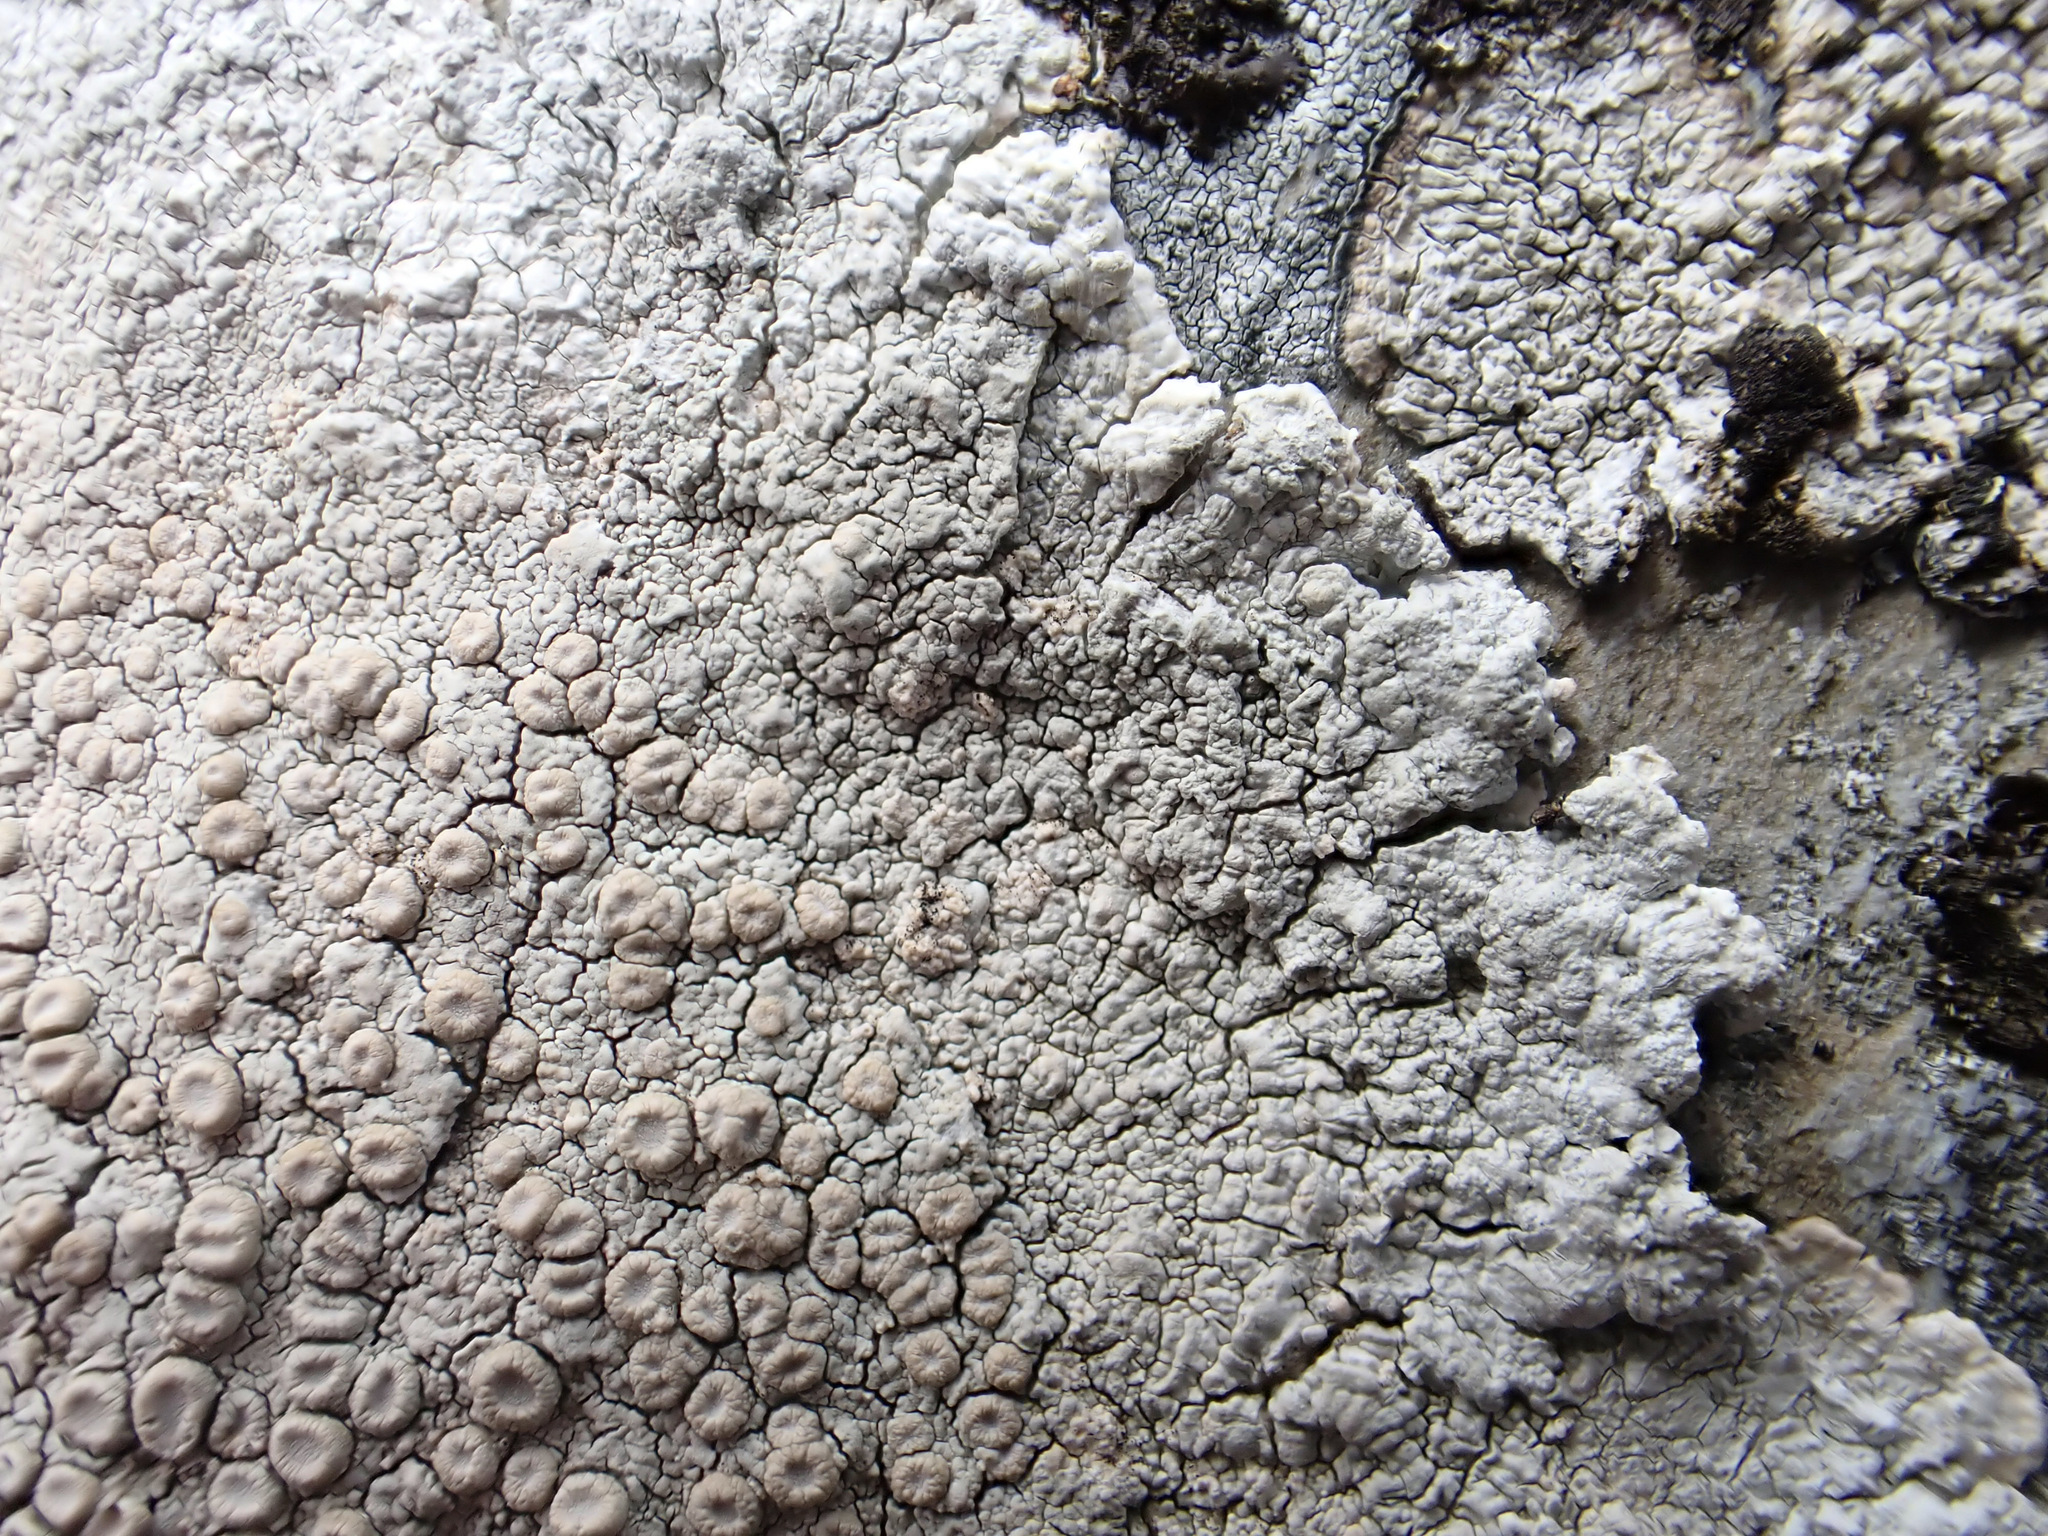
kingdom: Fungi
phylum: Ascomycota
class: Lecanoromycetes
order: Pertusariales
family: Ochrolechiaceae
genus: Ochrolechia
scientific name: Ochrolechia parella
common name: Crab's eye lichen
